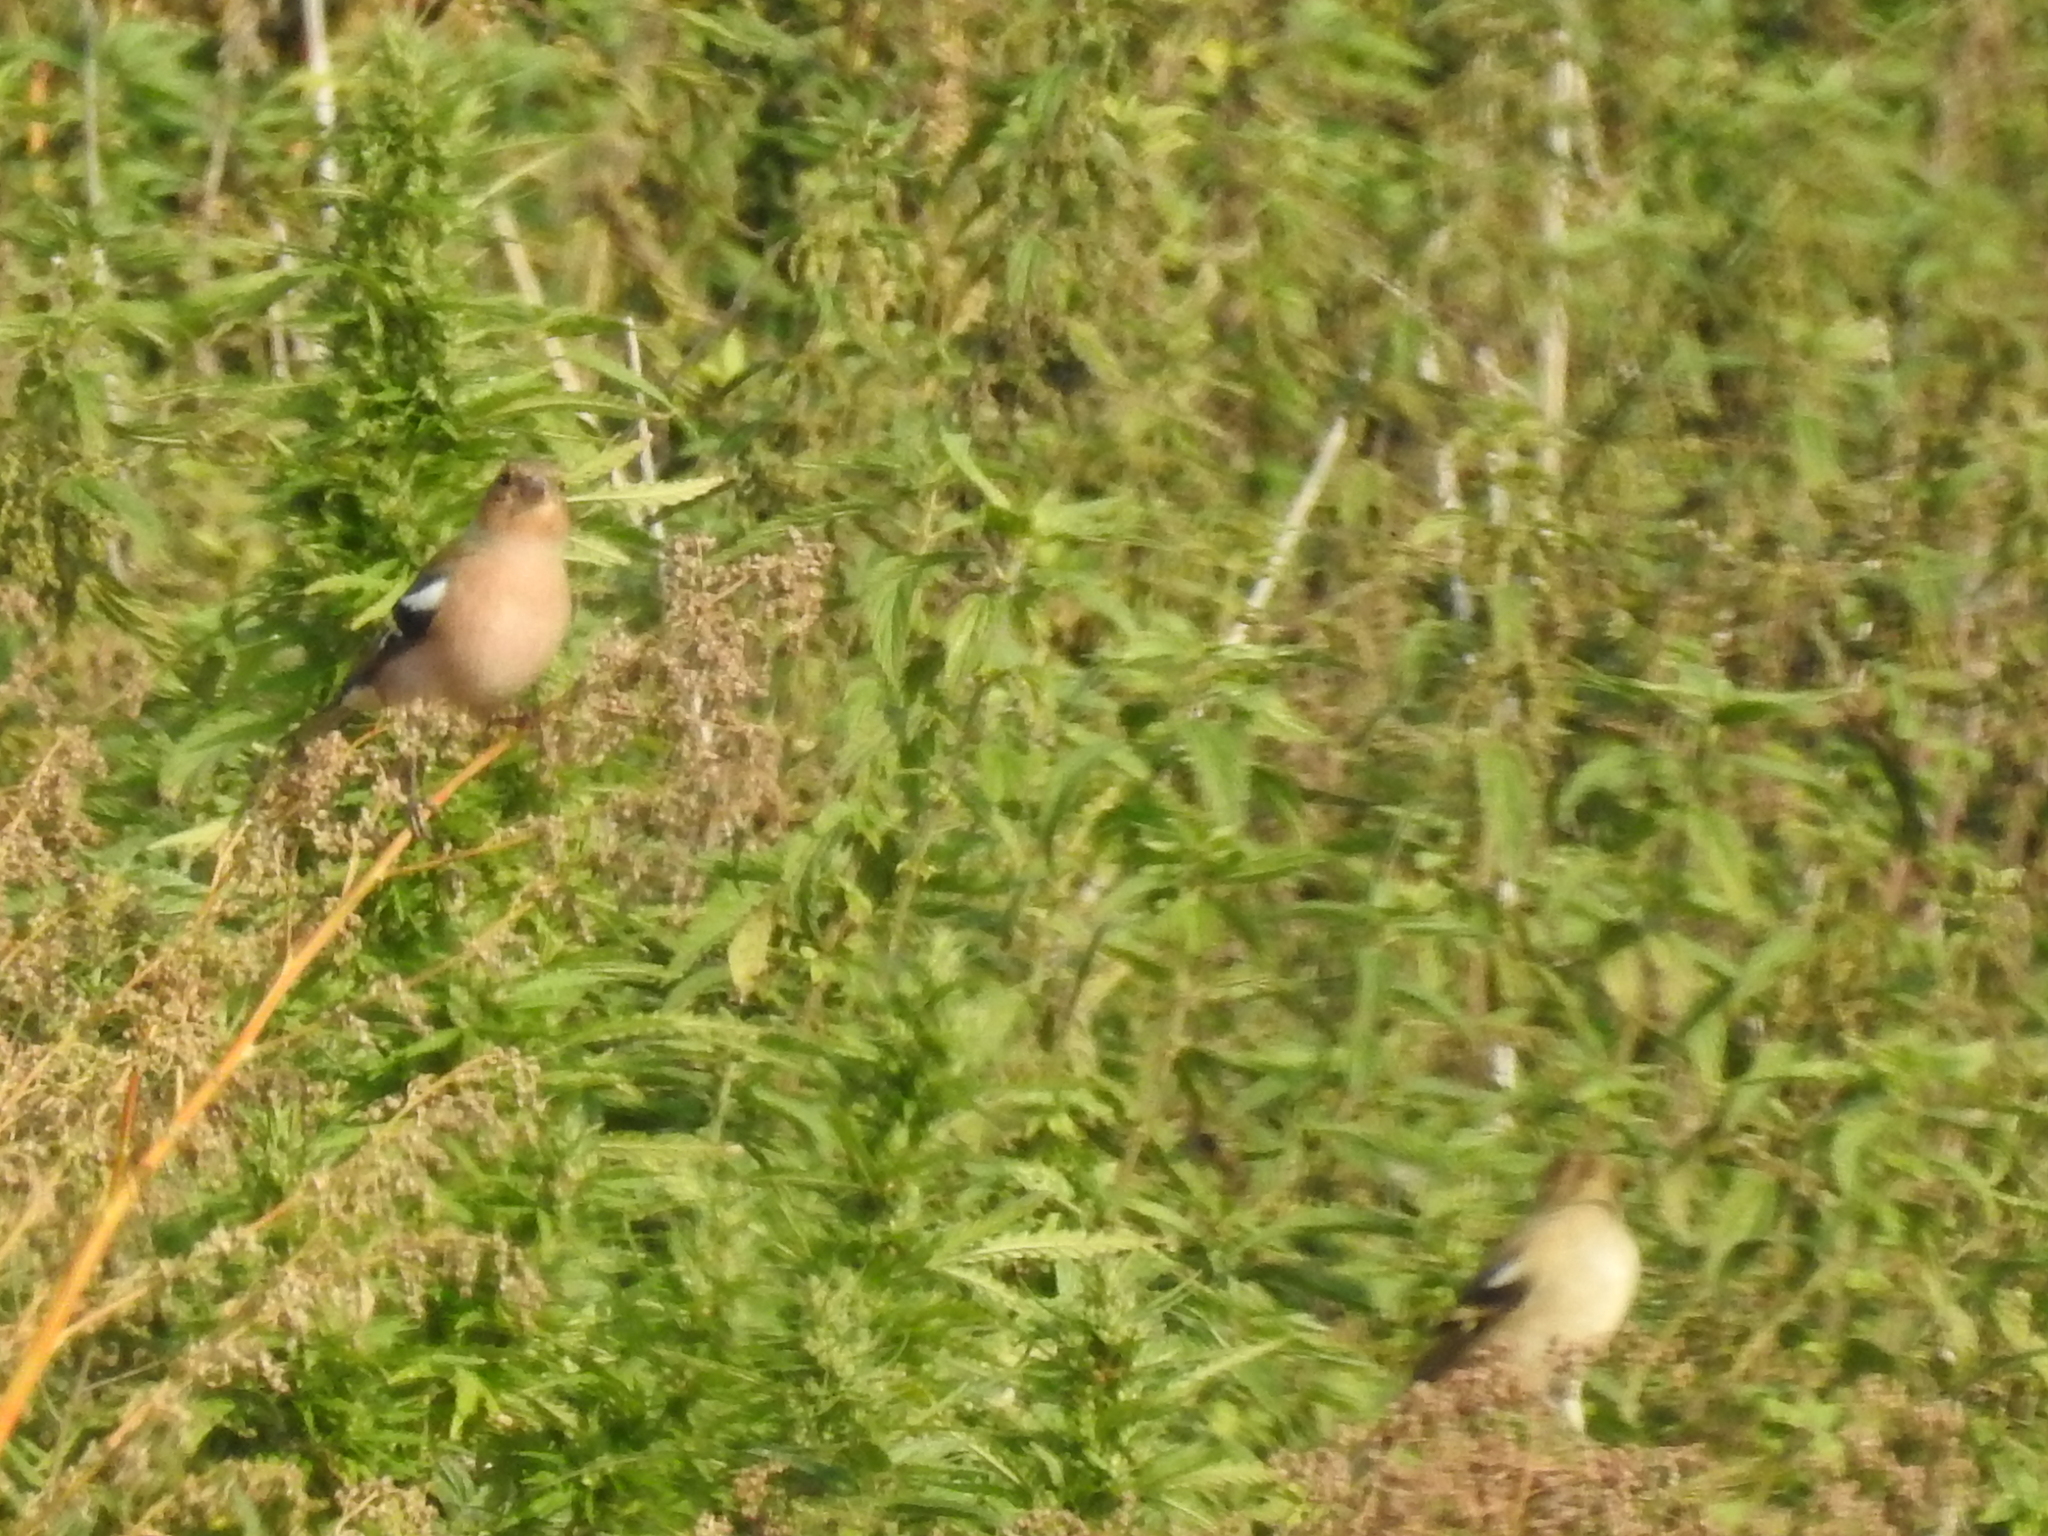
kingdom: Animalia
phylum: Chordata
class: Aves
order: Passeriformes
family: Fringillidae
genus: Fringilla
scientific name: Fringilla coelebs
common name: Common chaffinch
